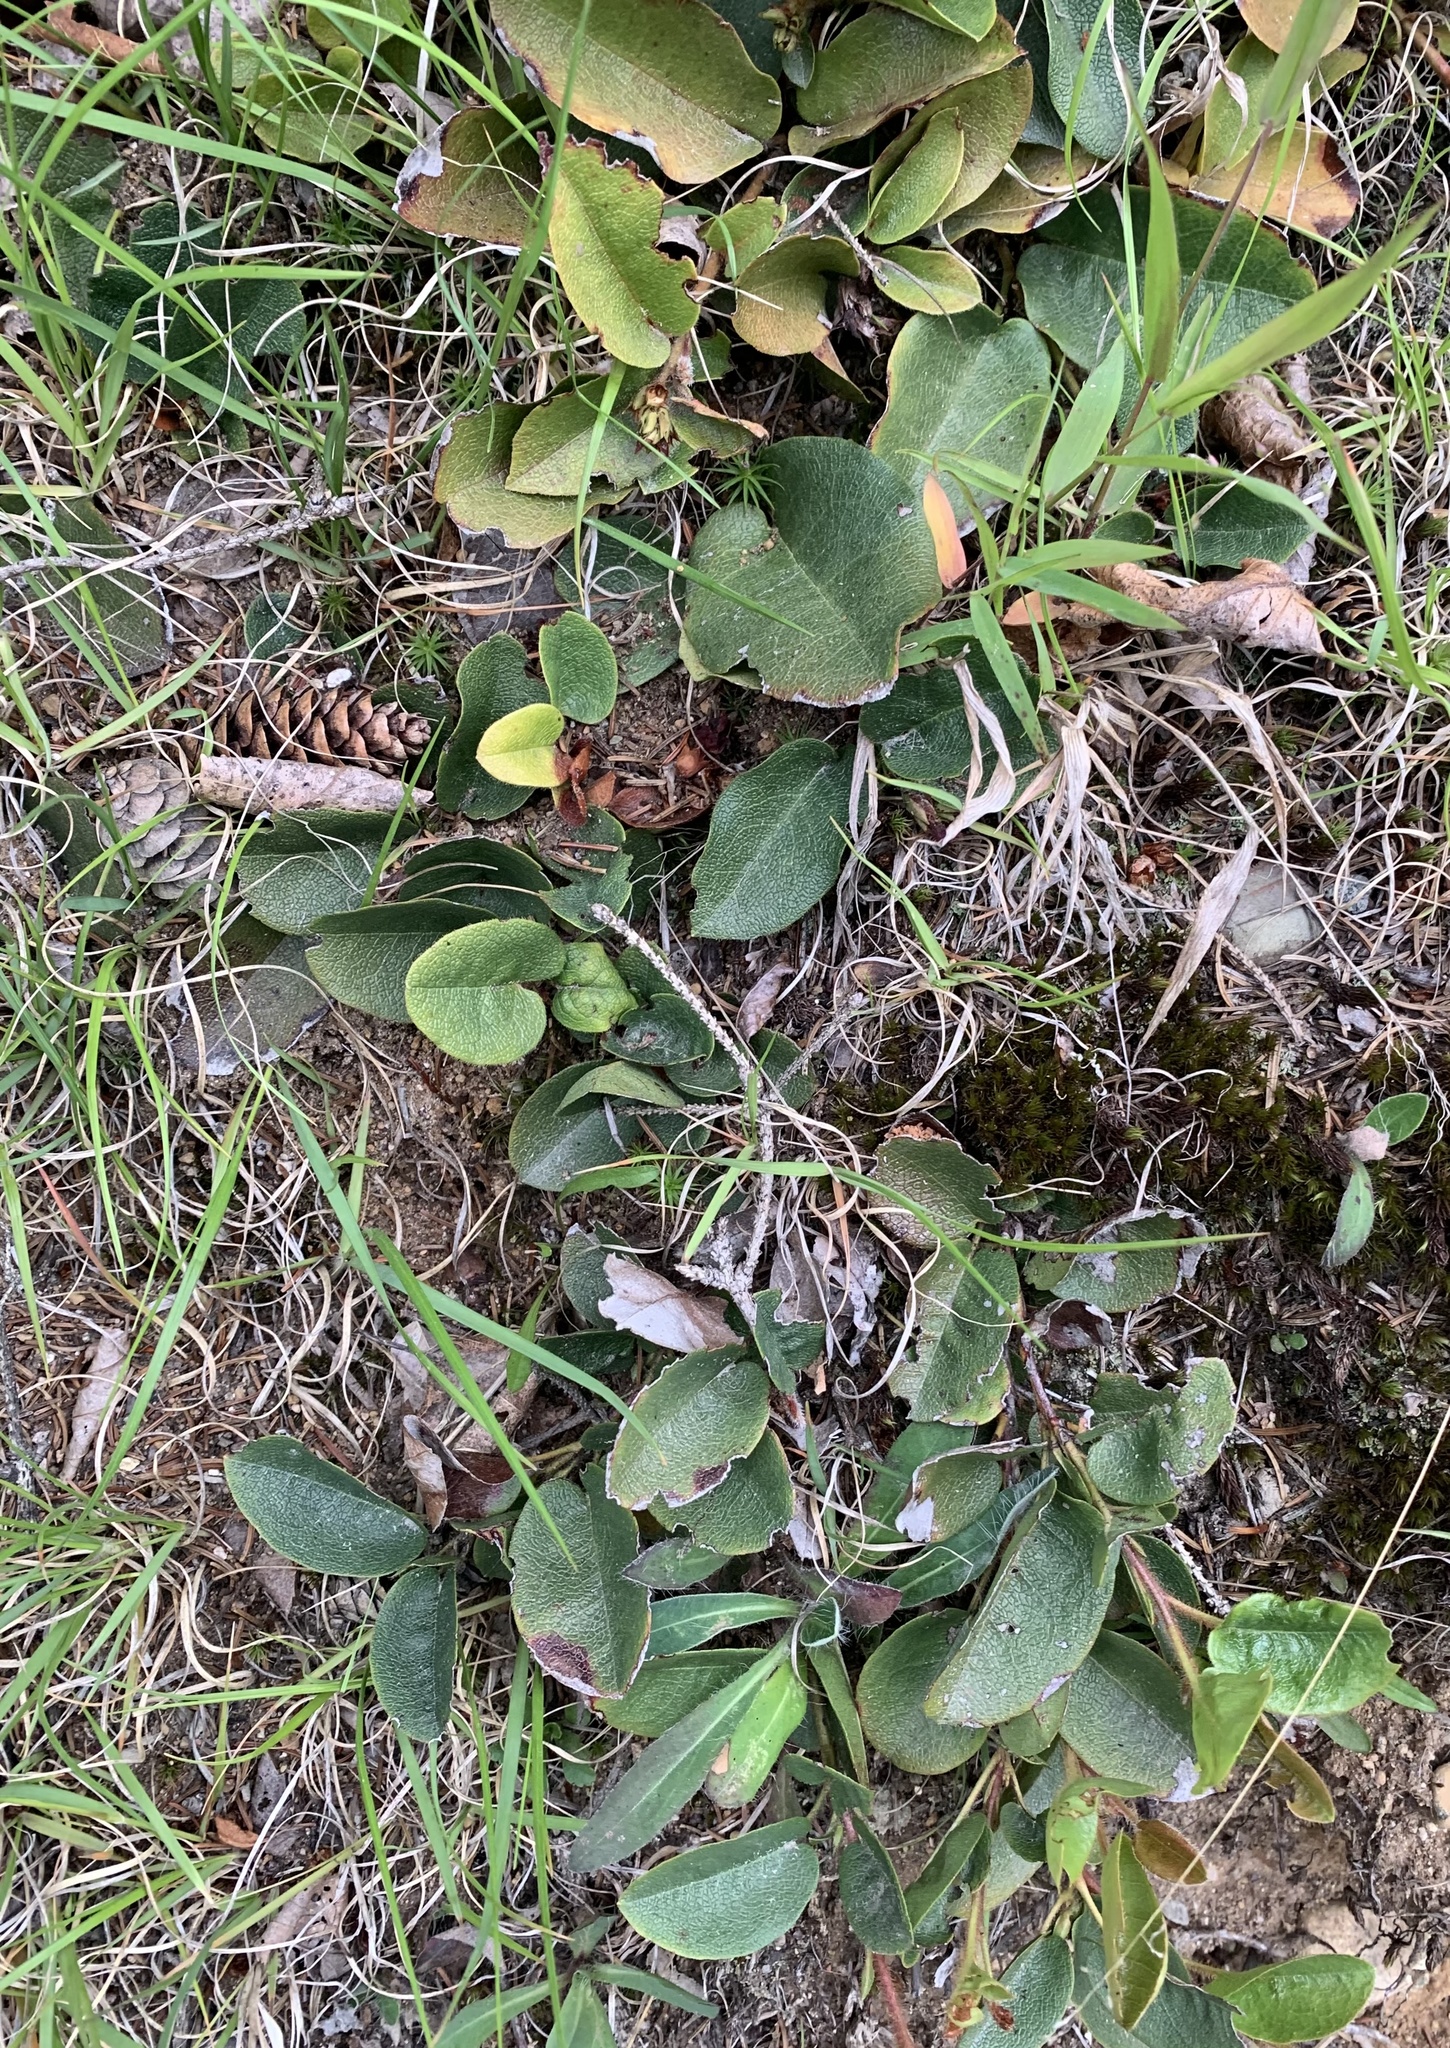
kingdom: Plantae
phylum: Tracheophyta
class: Magnoliopsida
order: Ericales
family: Ericaceae
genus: Epigaea
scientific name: Epigaea repens
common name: Gravelroot
